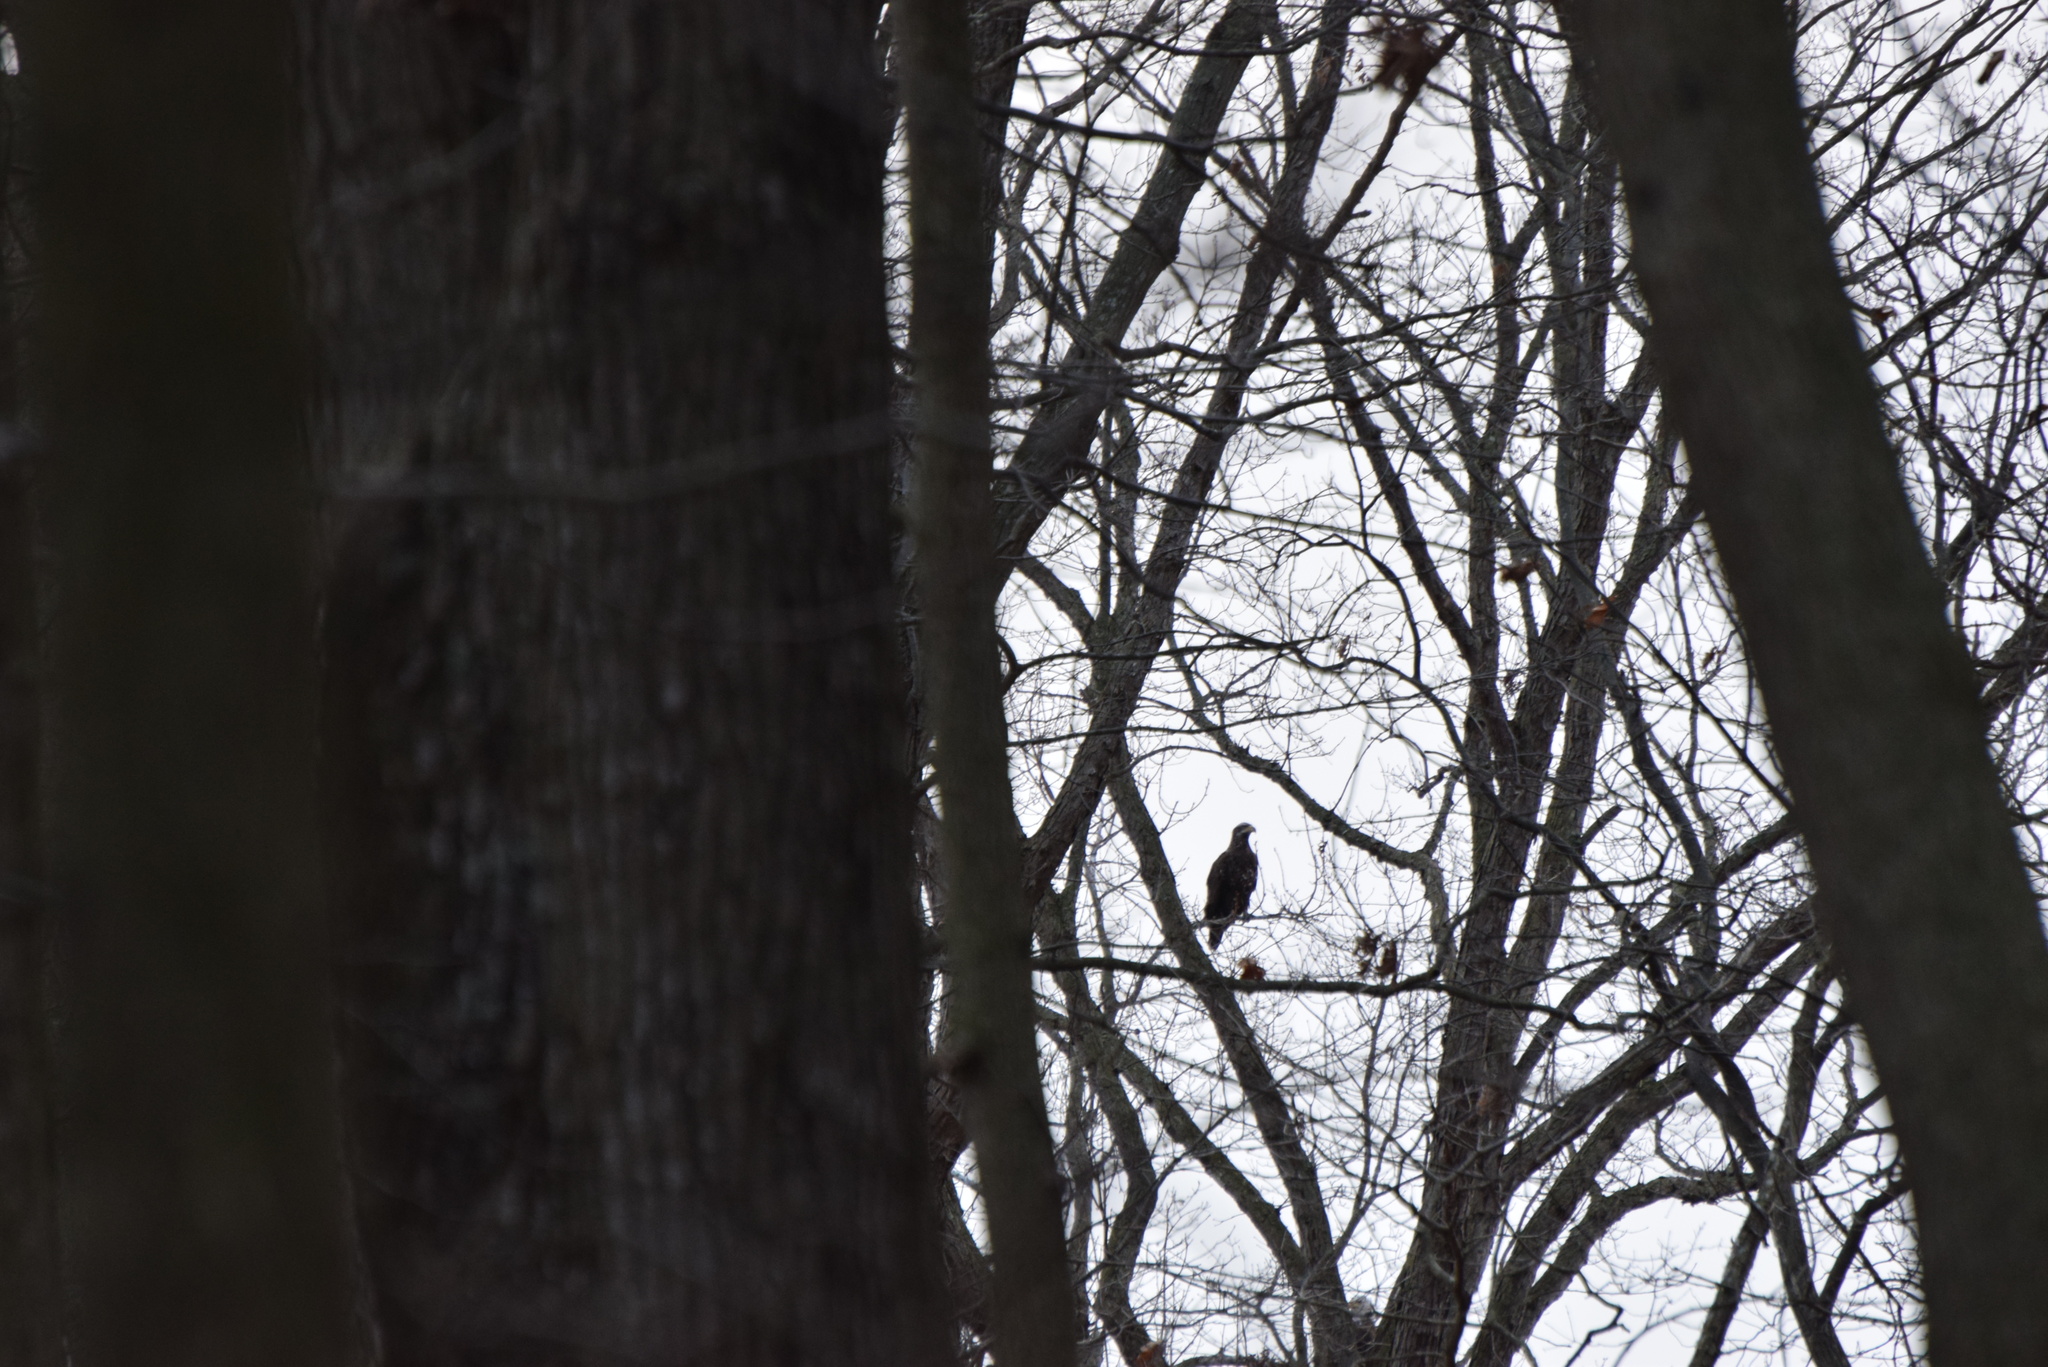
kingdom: Animalia
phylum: Chordata
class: Aves
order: Accipitriformes
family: Accipitridae
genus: Haliaeetus
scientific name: Haliaeetus leucocephalus
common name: Bald eagle
